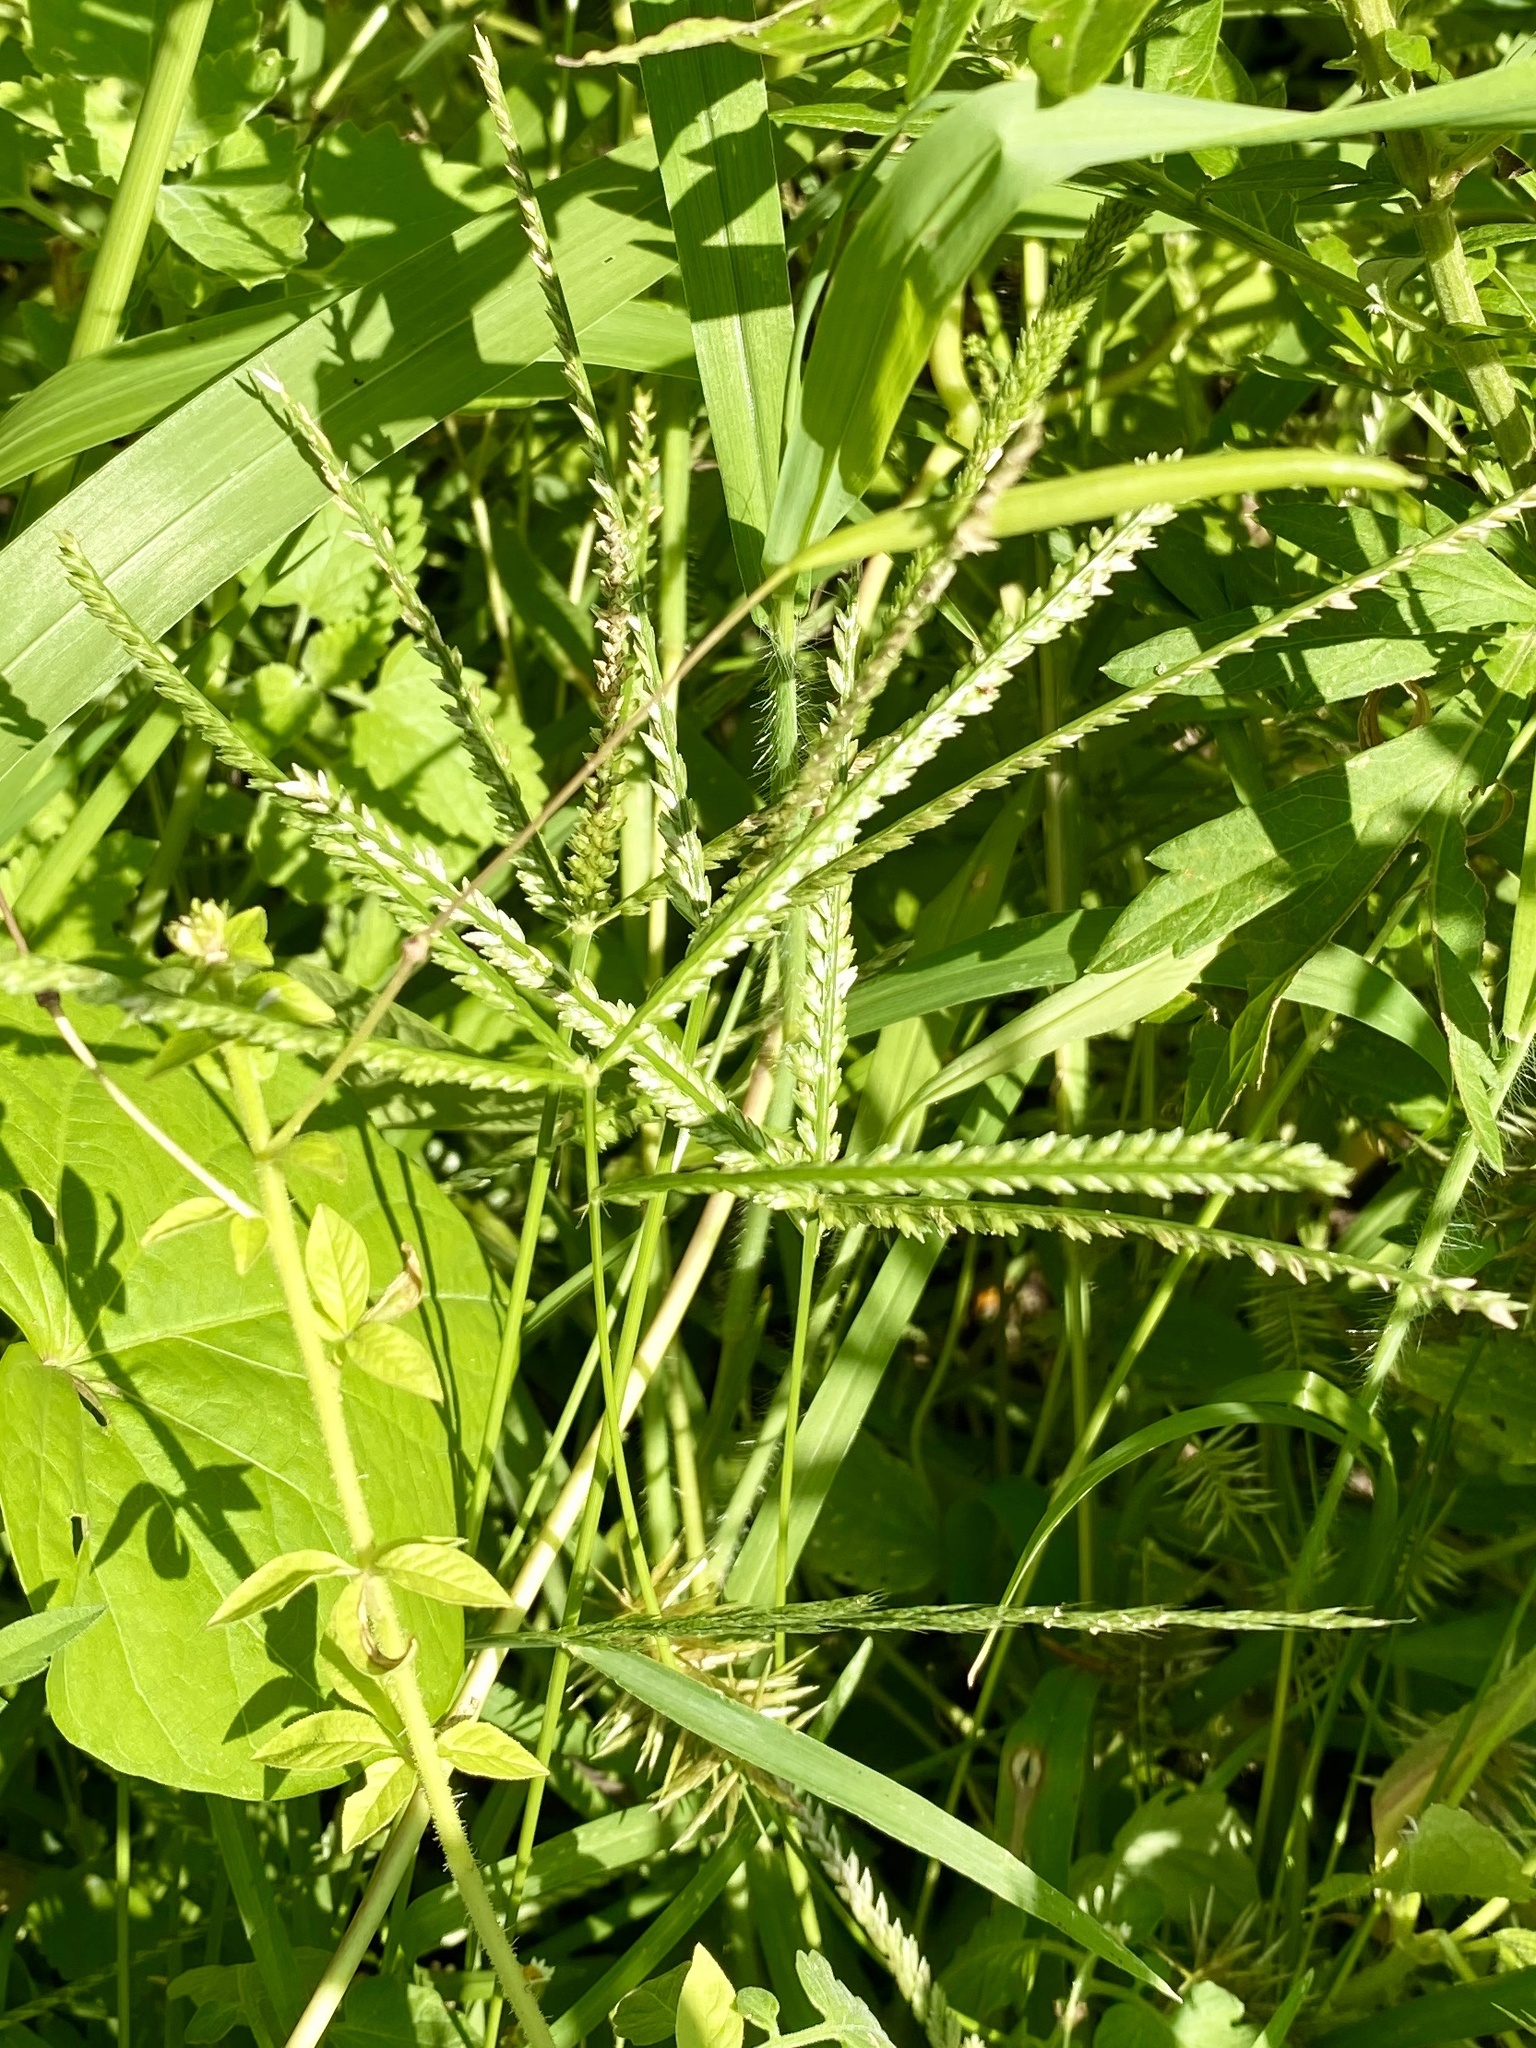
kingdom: Plantae
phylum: Tracheophyta
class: Liliopsida
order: Poales
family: Poaceae
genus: Eleusine
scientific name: Eleusine indica
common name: Yard-grass
